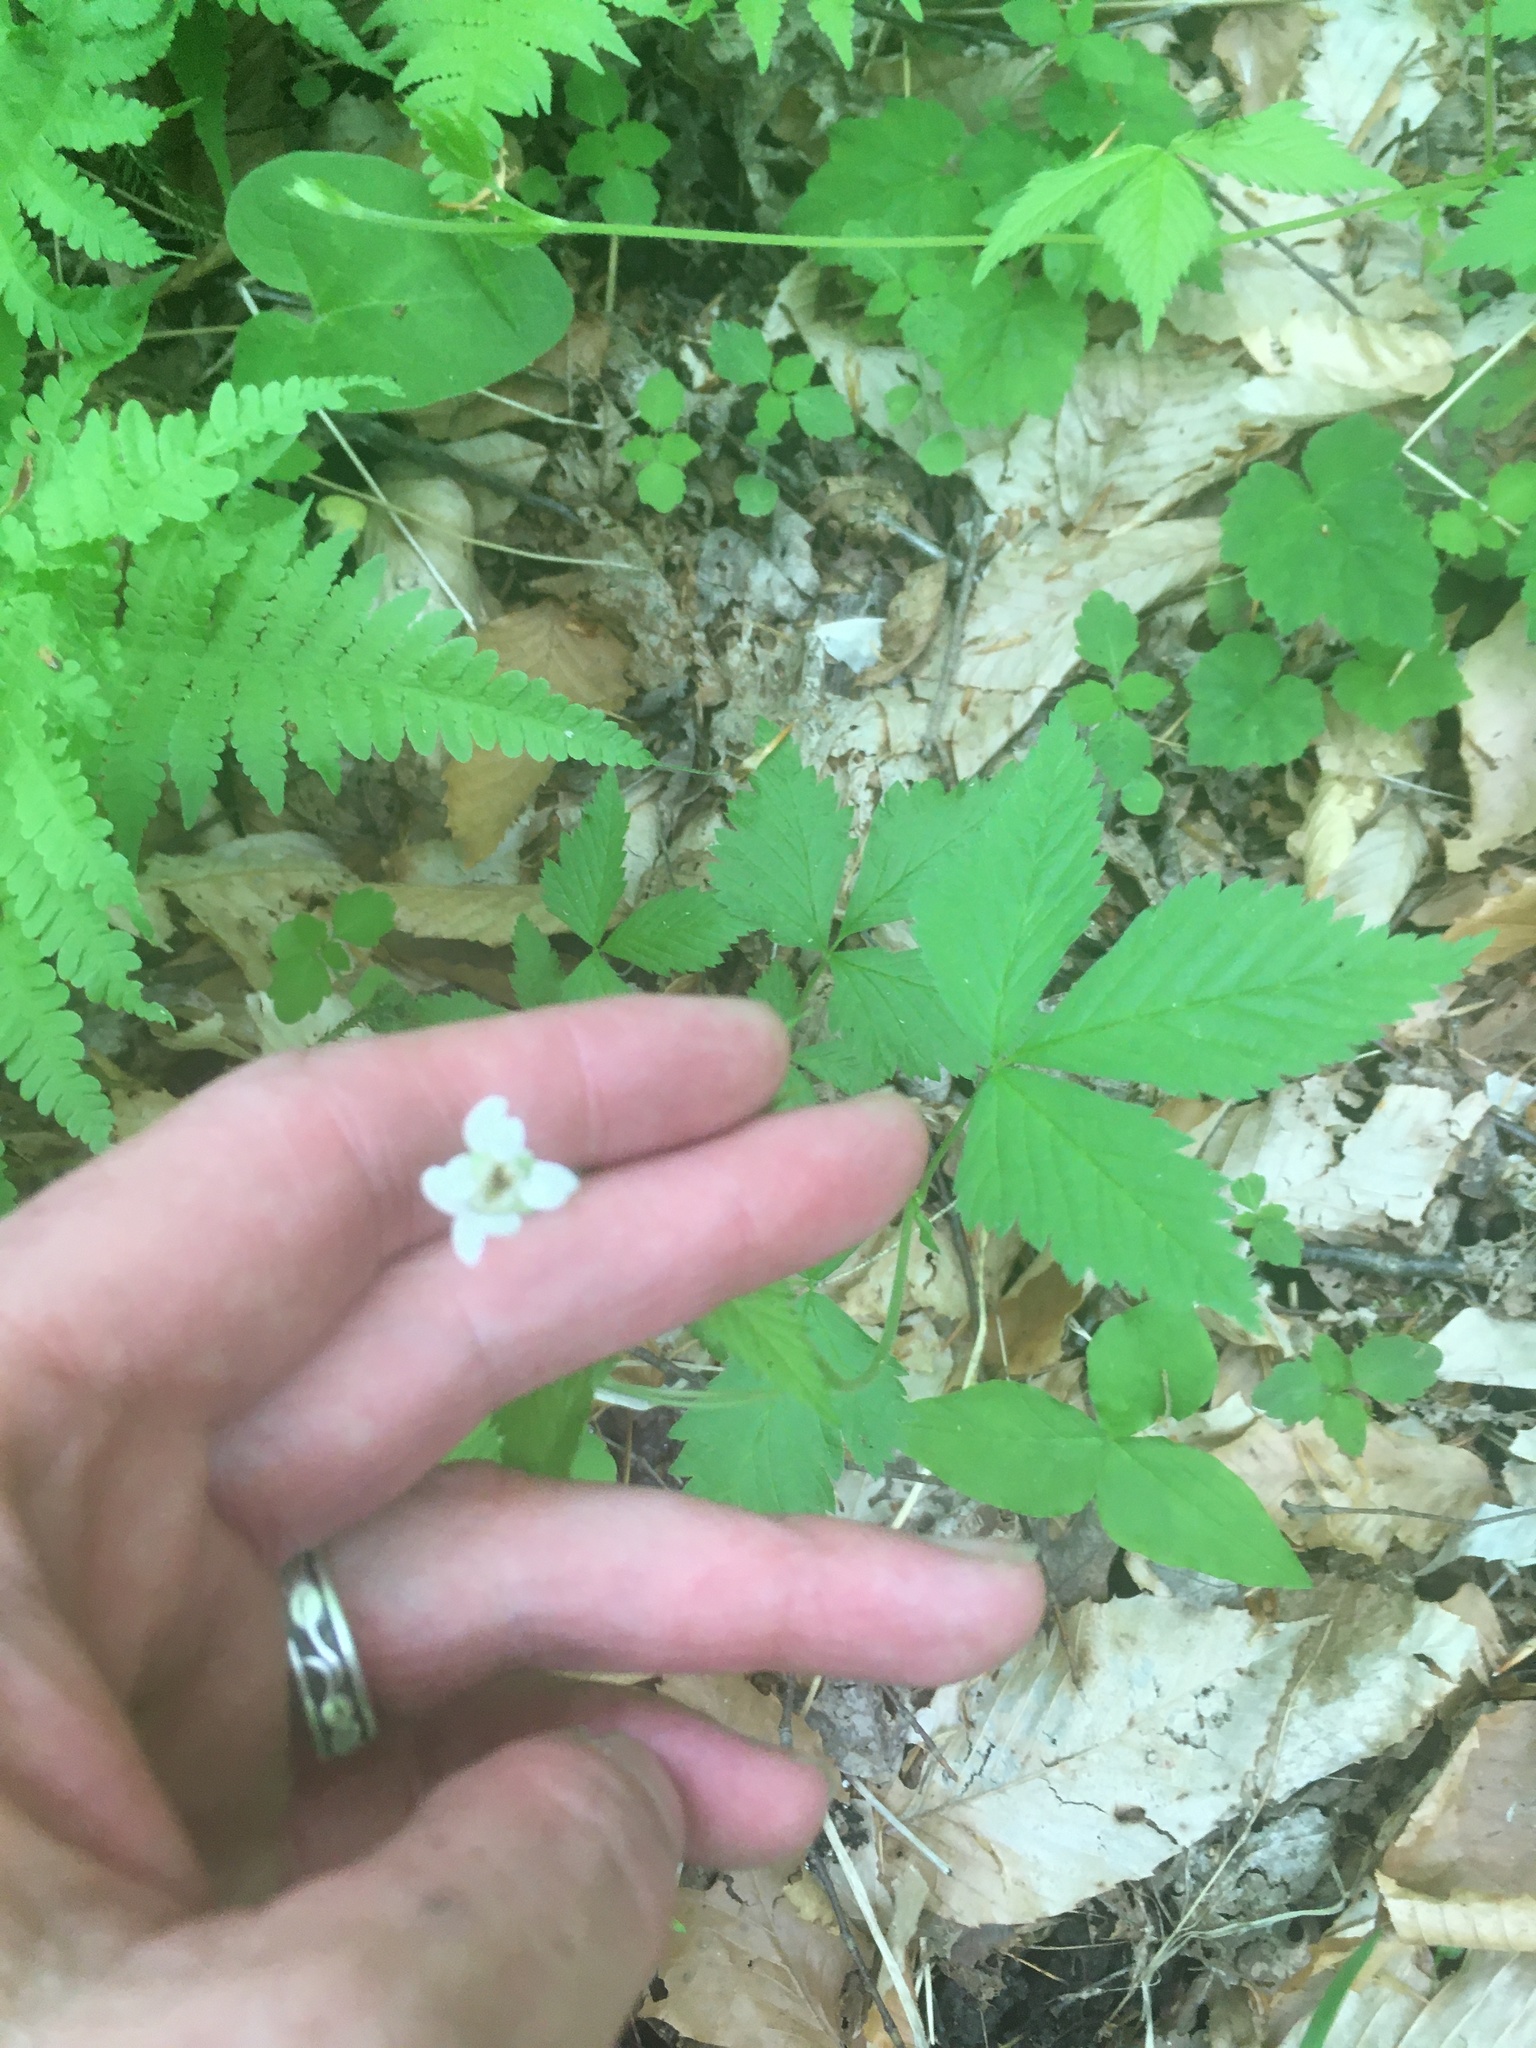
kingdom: Plantae
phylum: Tracheophyta
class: Magnoliopsida
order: Rosales
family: Rosaceae
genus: Rubus
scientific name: Rubus pubescens
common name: Dwarf raspberry
